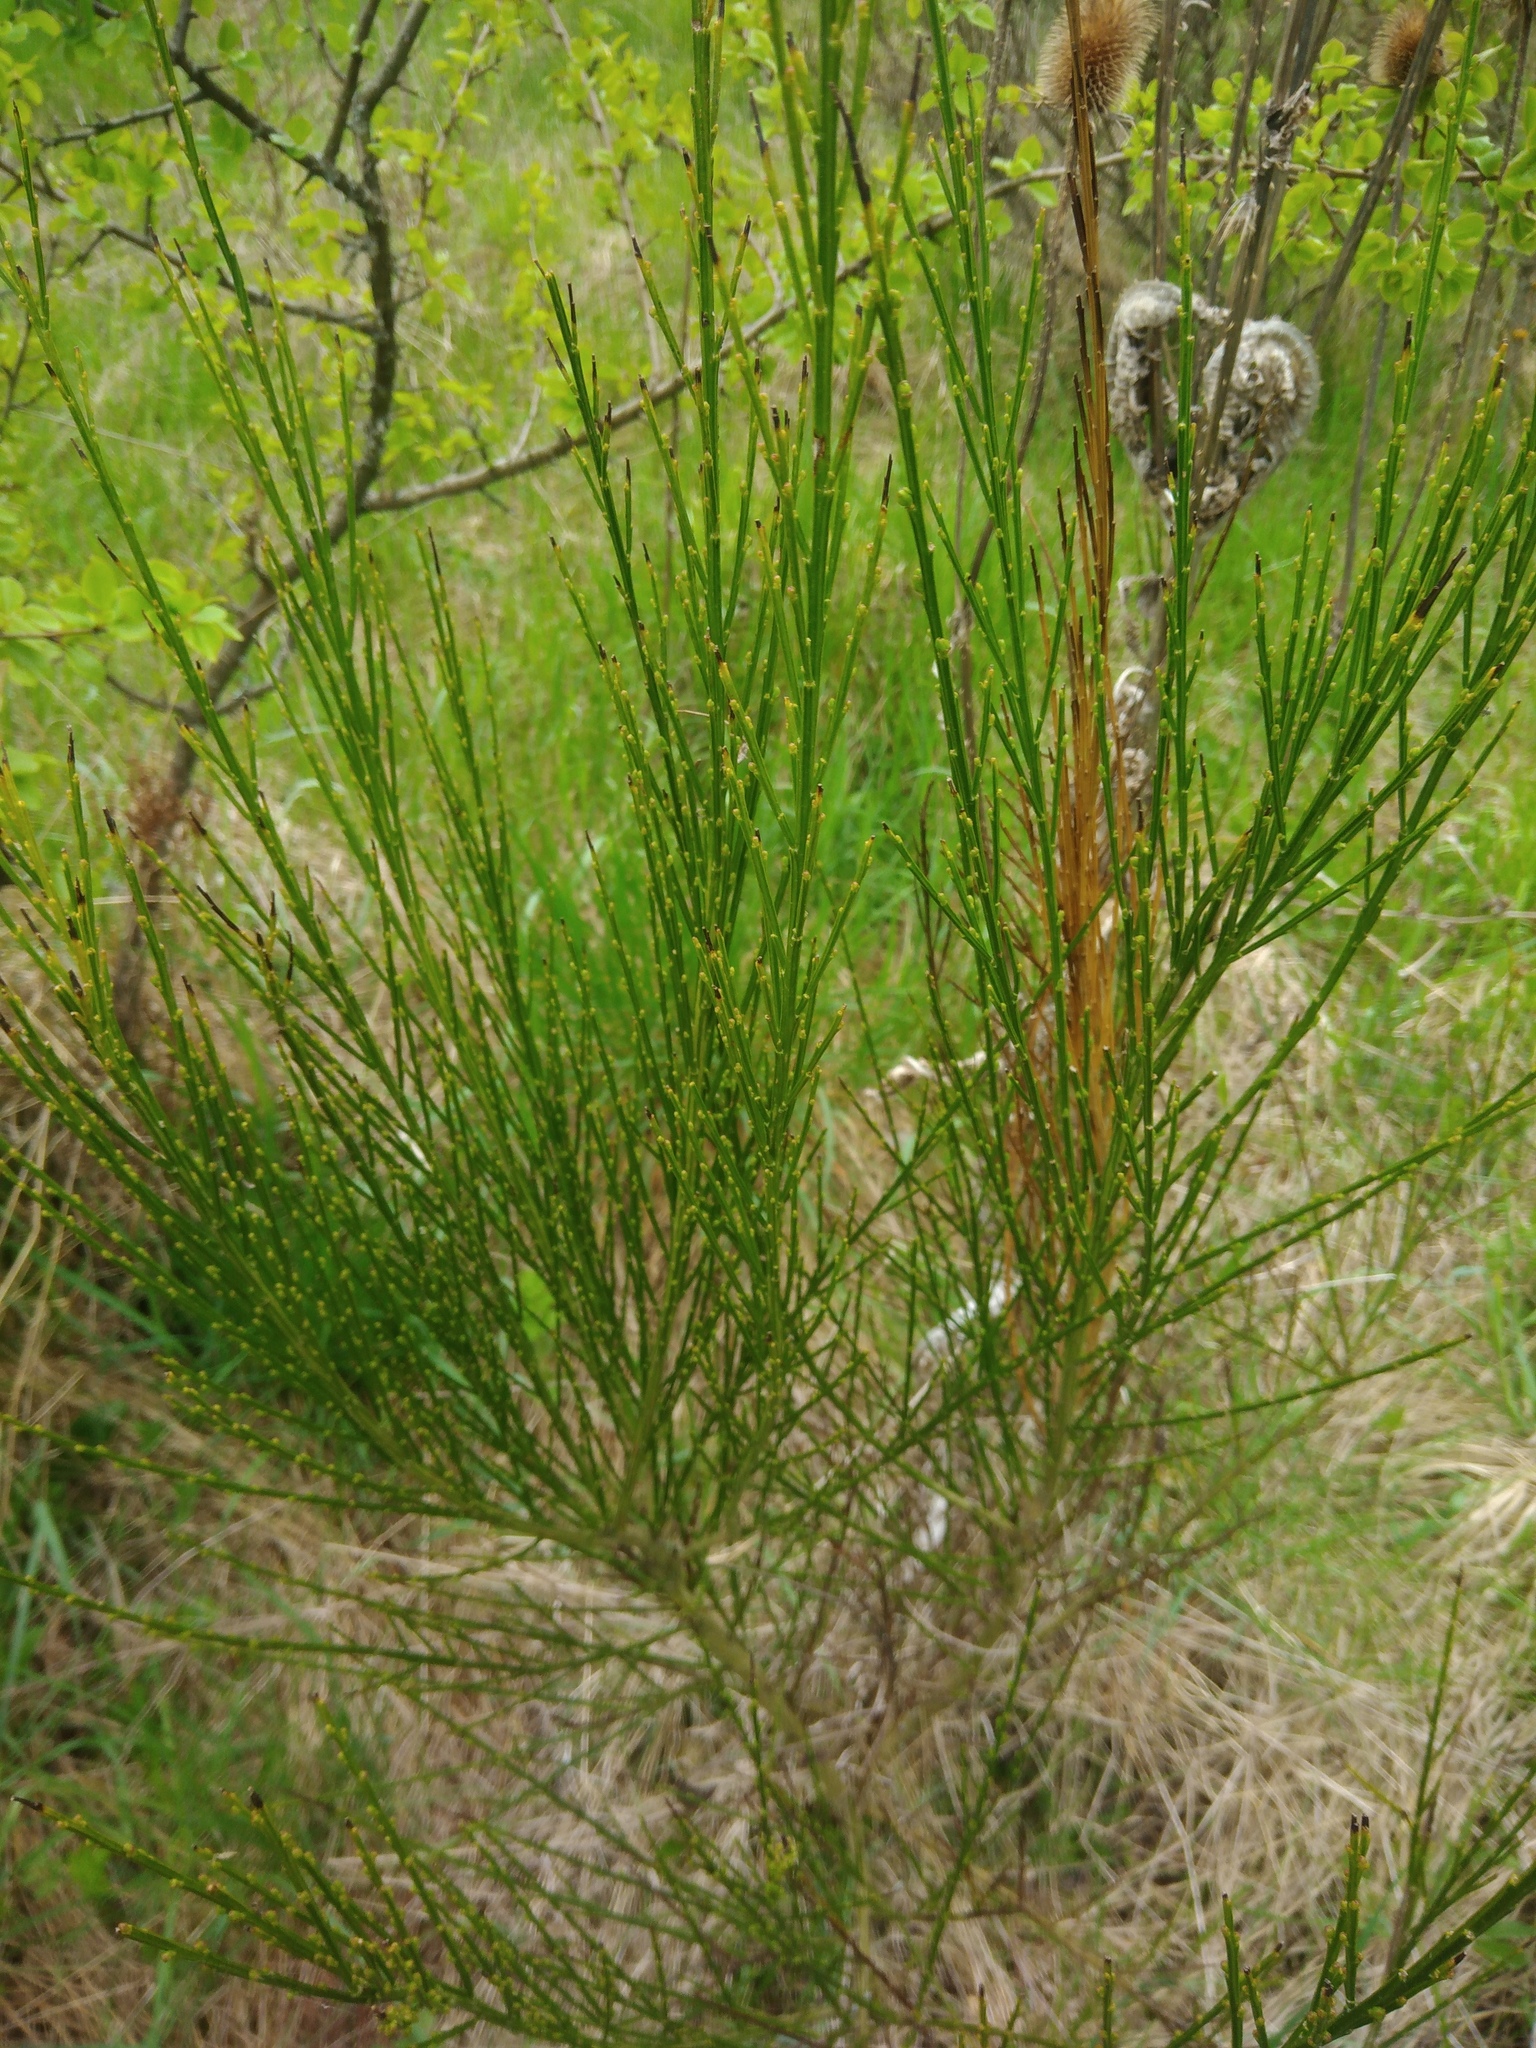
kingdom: Plantae
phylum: Tracheophyta
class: Magnoliopsida
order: Fabales
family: Fabaceae
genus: Cytisus
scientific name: Cytisus scoparius
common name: Scotch broom
